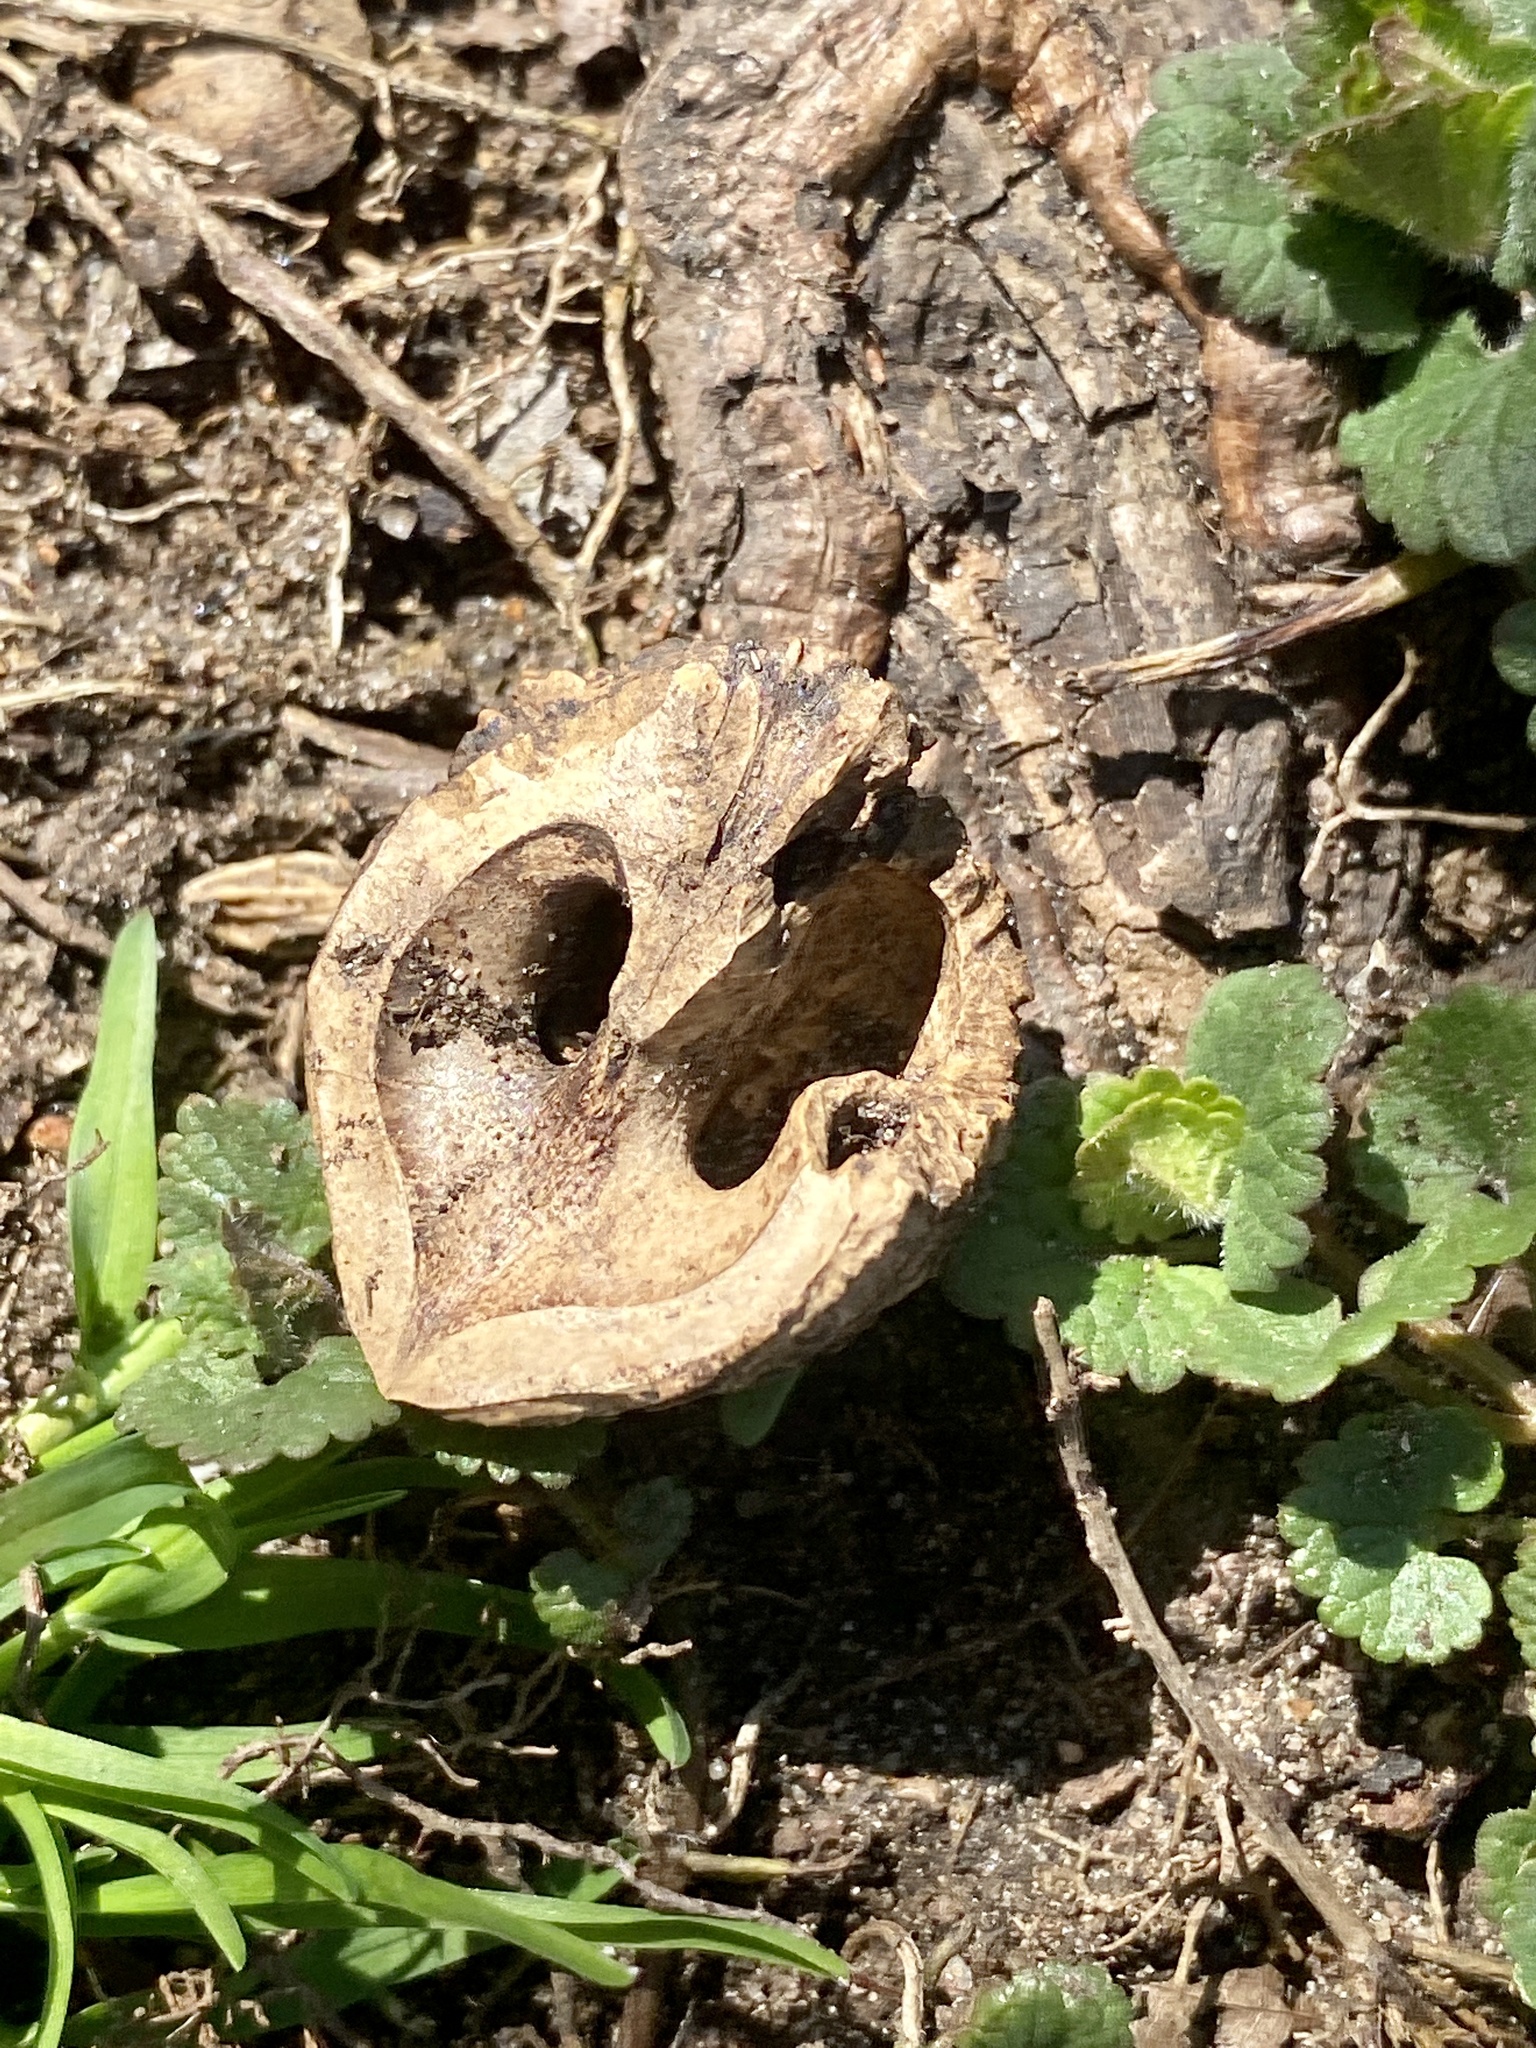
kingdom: Plantae
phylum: Tracheophyta
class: Magnoliopsida
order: Fagales
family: Juglandaceae
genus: Juglans
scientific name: Juglans nigra
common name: Black walnut
